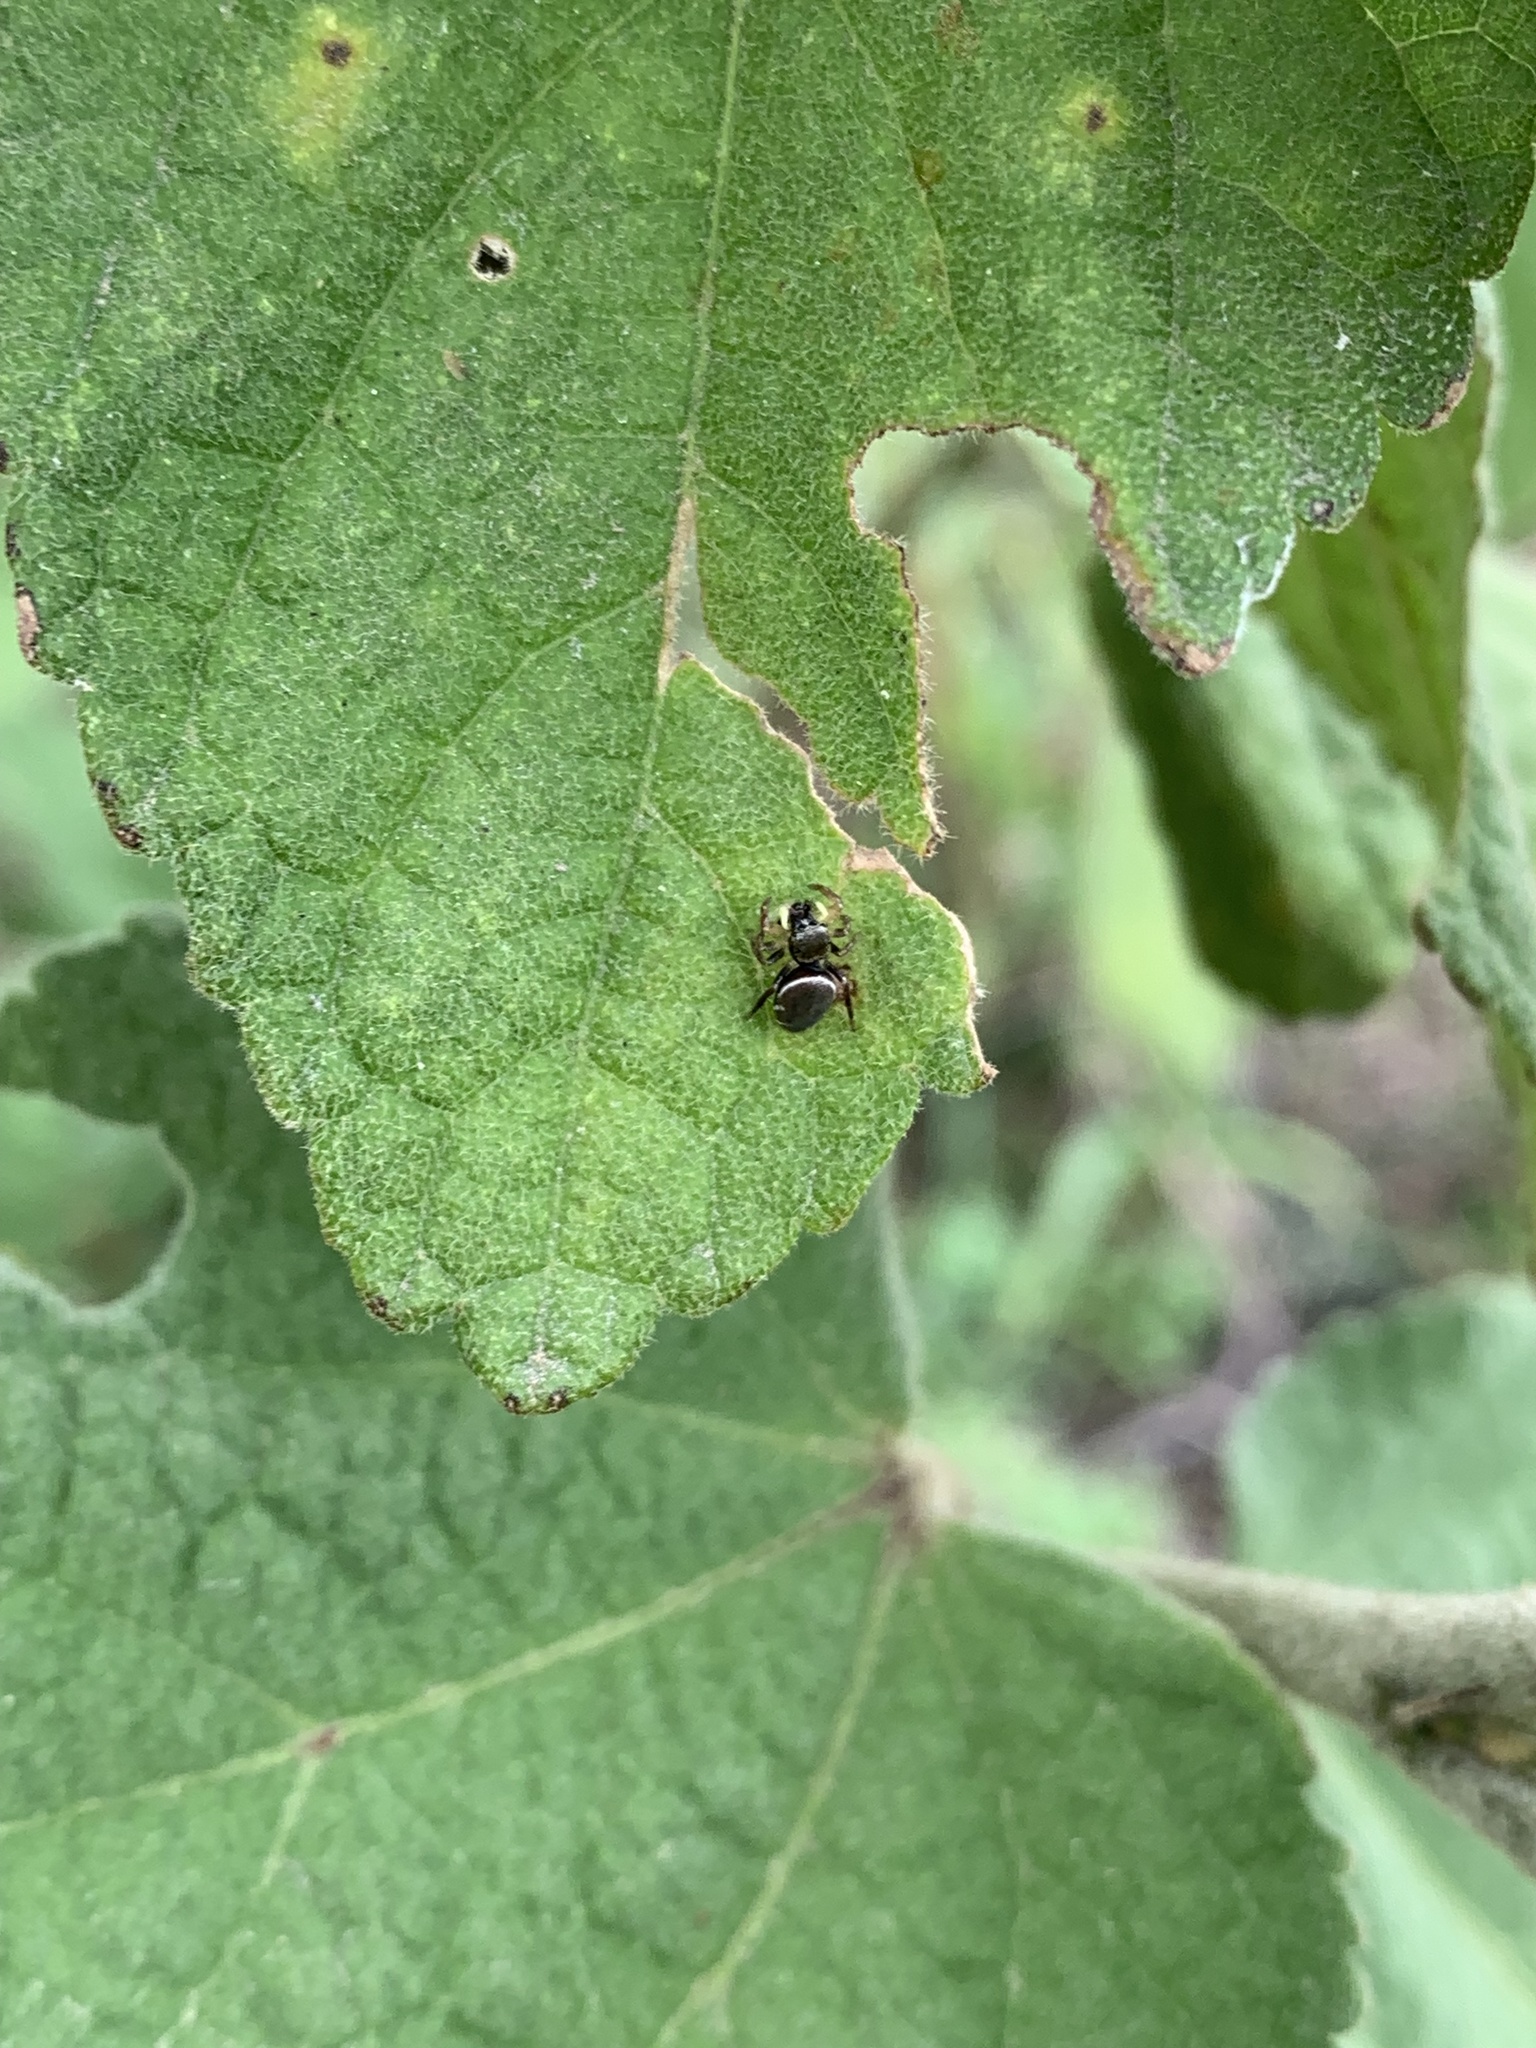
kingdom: Animalia
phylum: Arthropoda
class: Arachnida
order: Araneae
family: Salticidae
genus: Heliophanus
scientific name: Heliophanus hamifer
